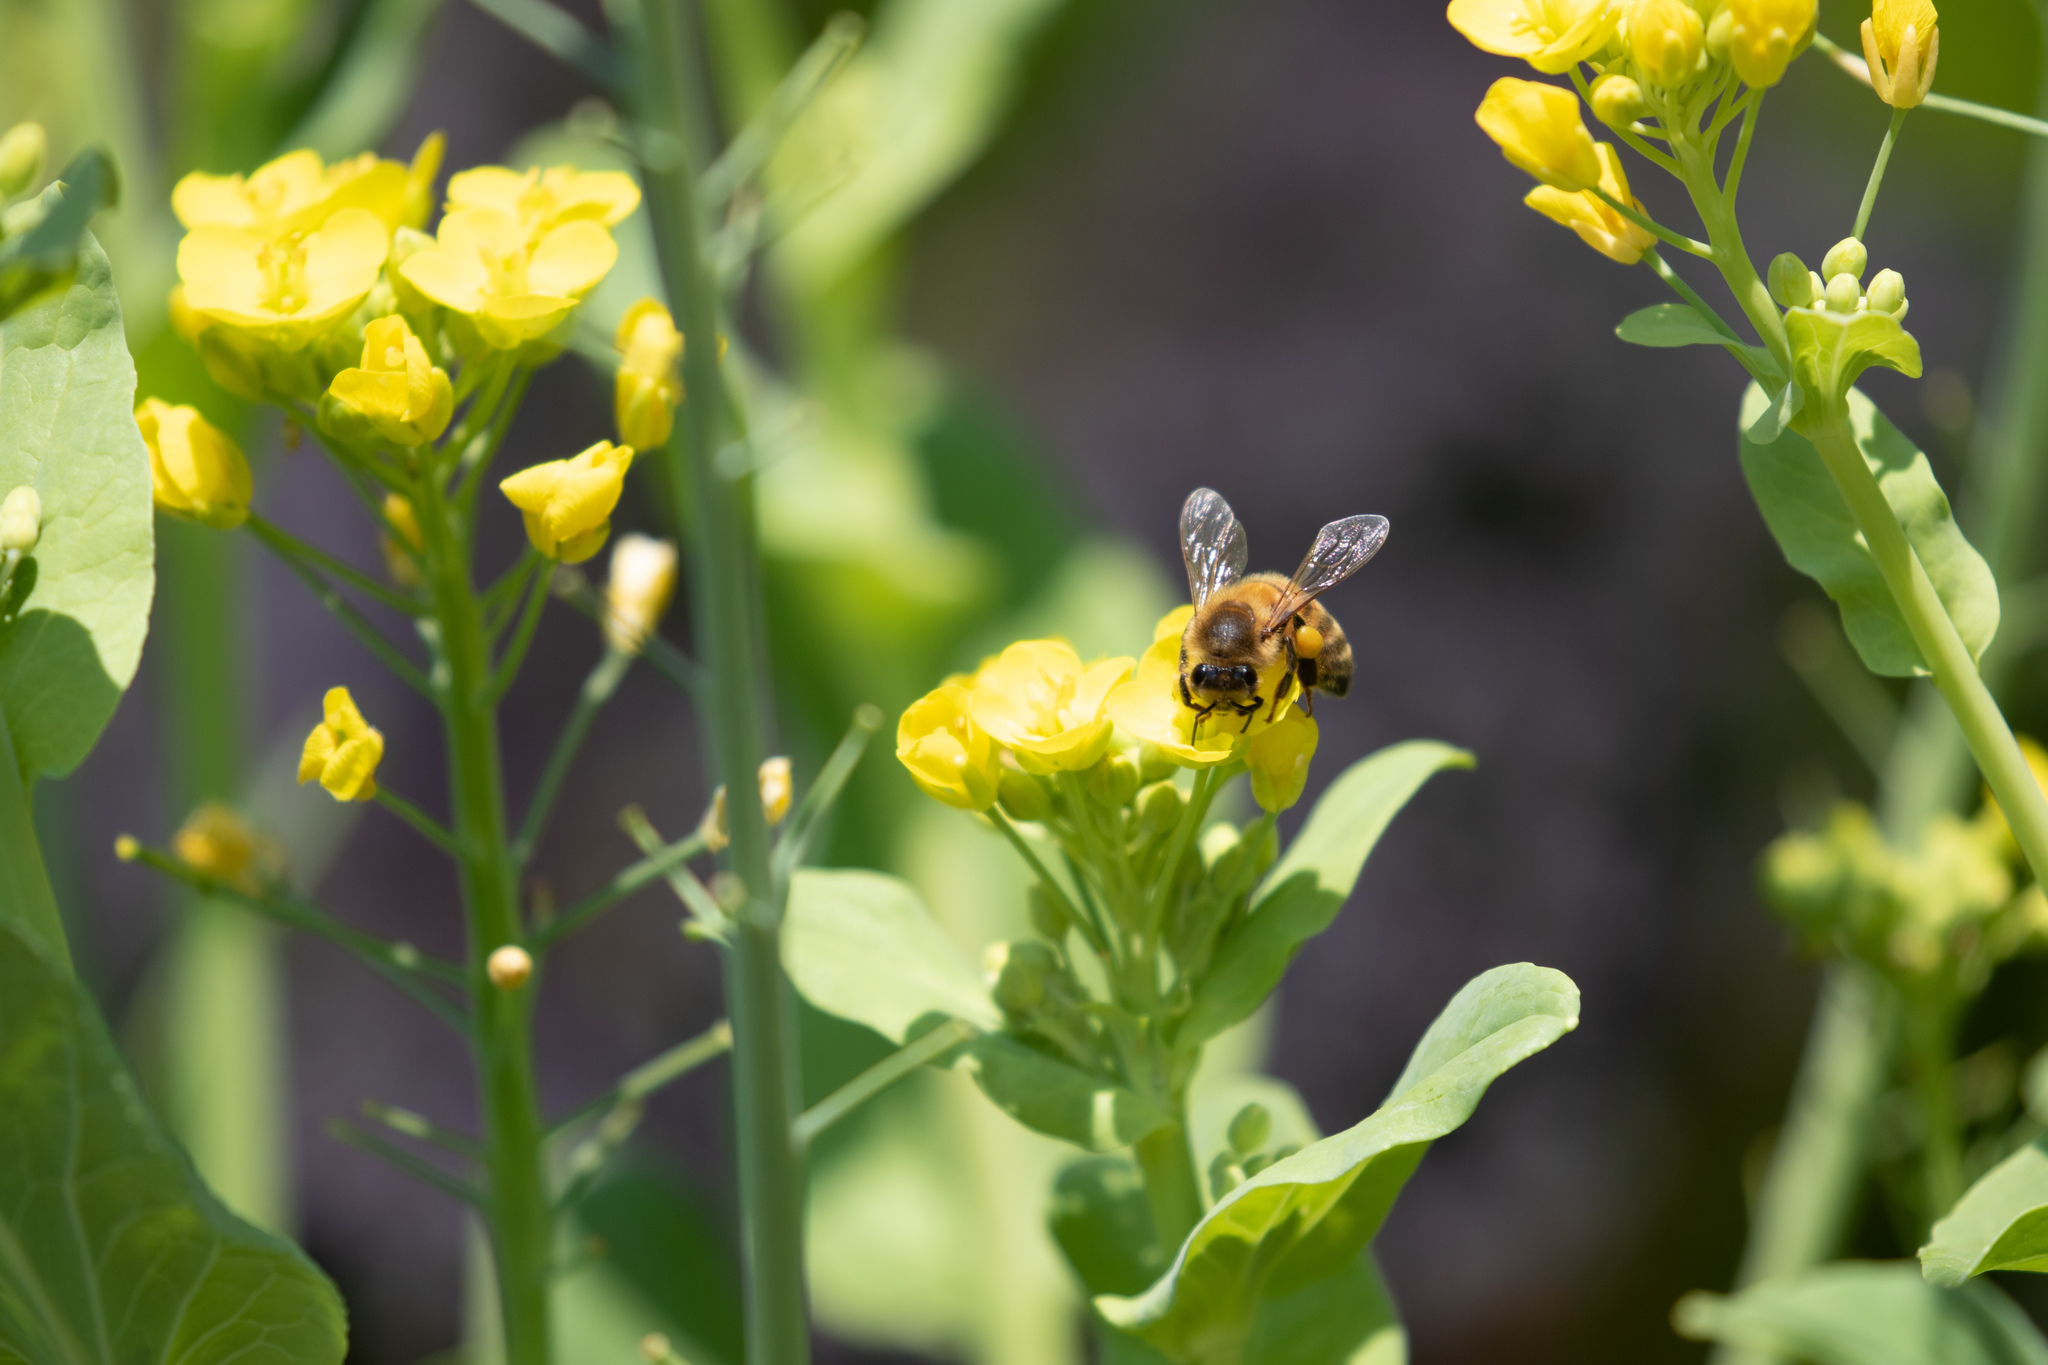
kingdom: Animalia
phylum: Arthropoda
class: Insecta
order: Hymenoptera
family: Apidae
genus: Apis
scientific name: Apis mellifera
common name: Honey bee
